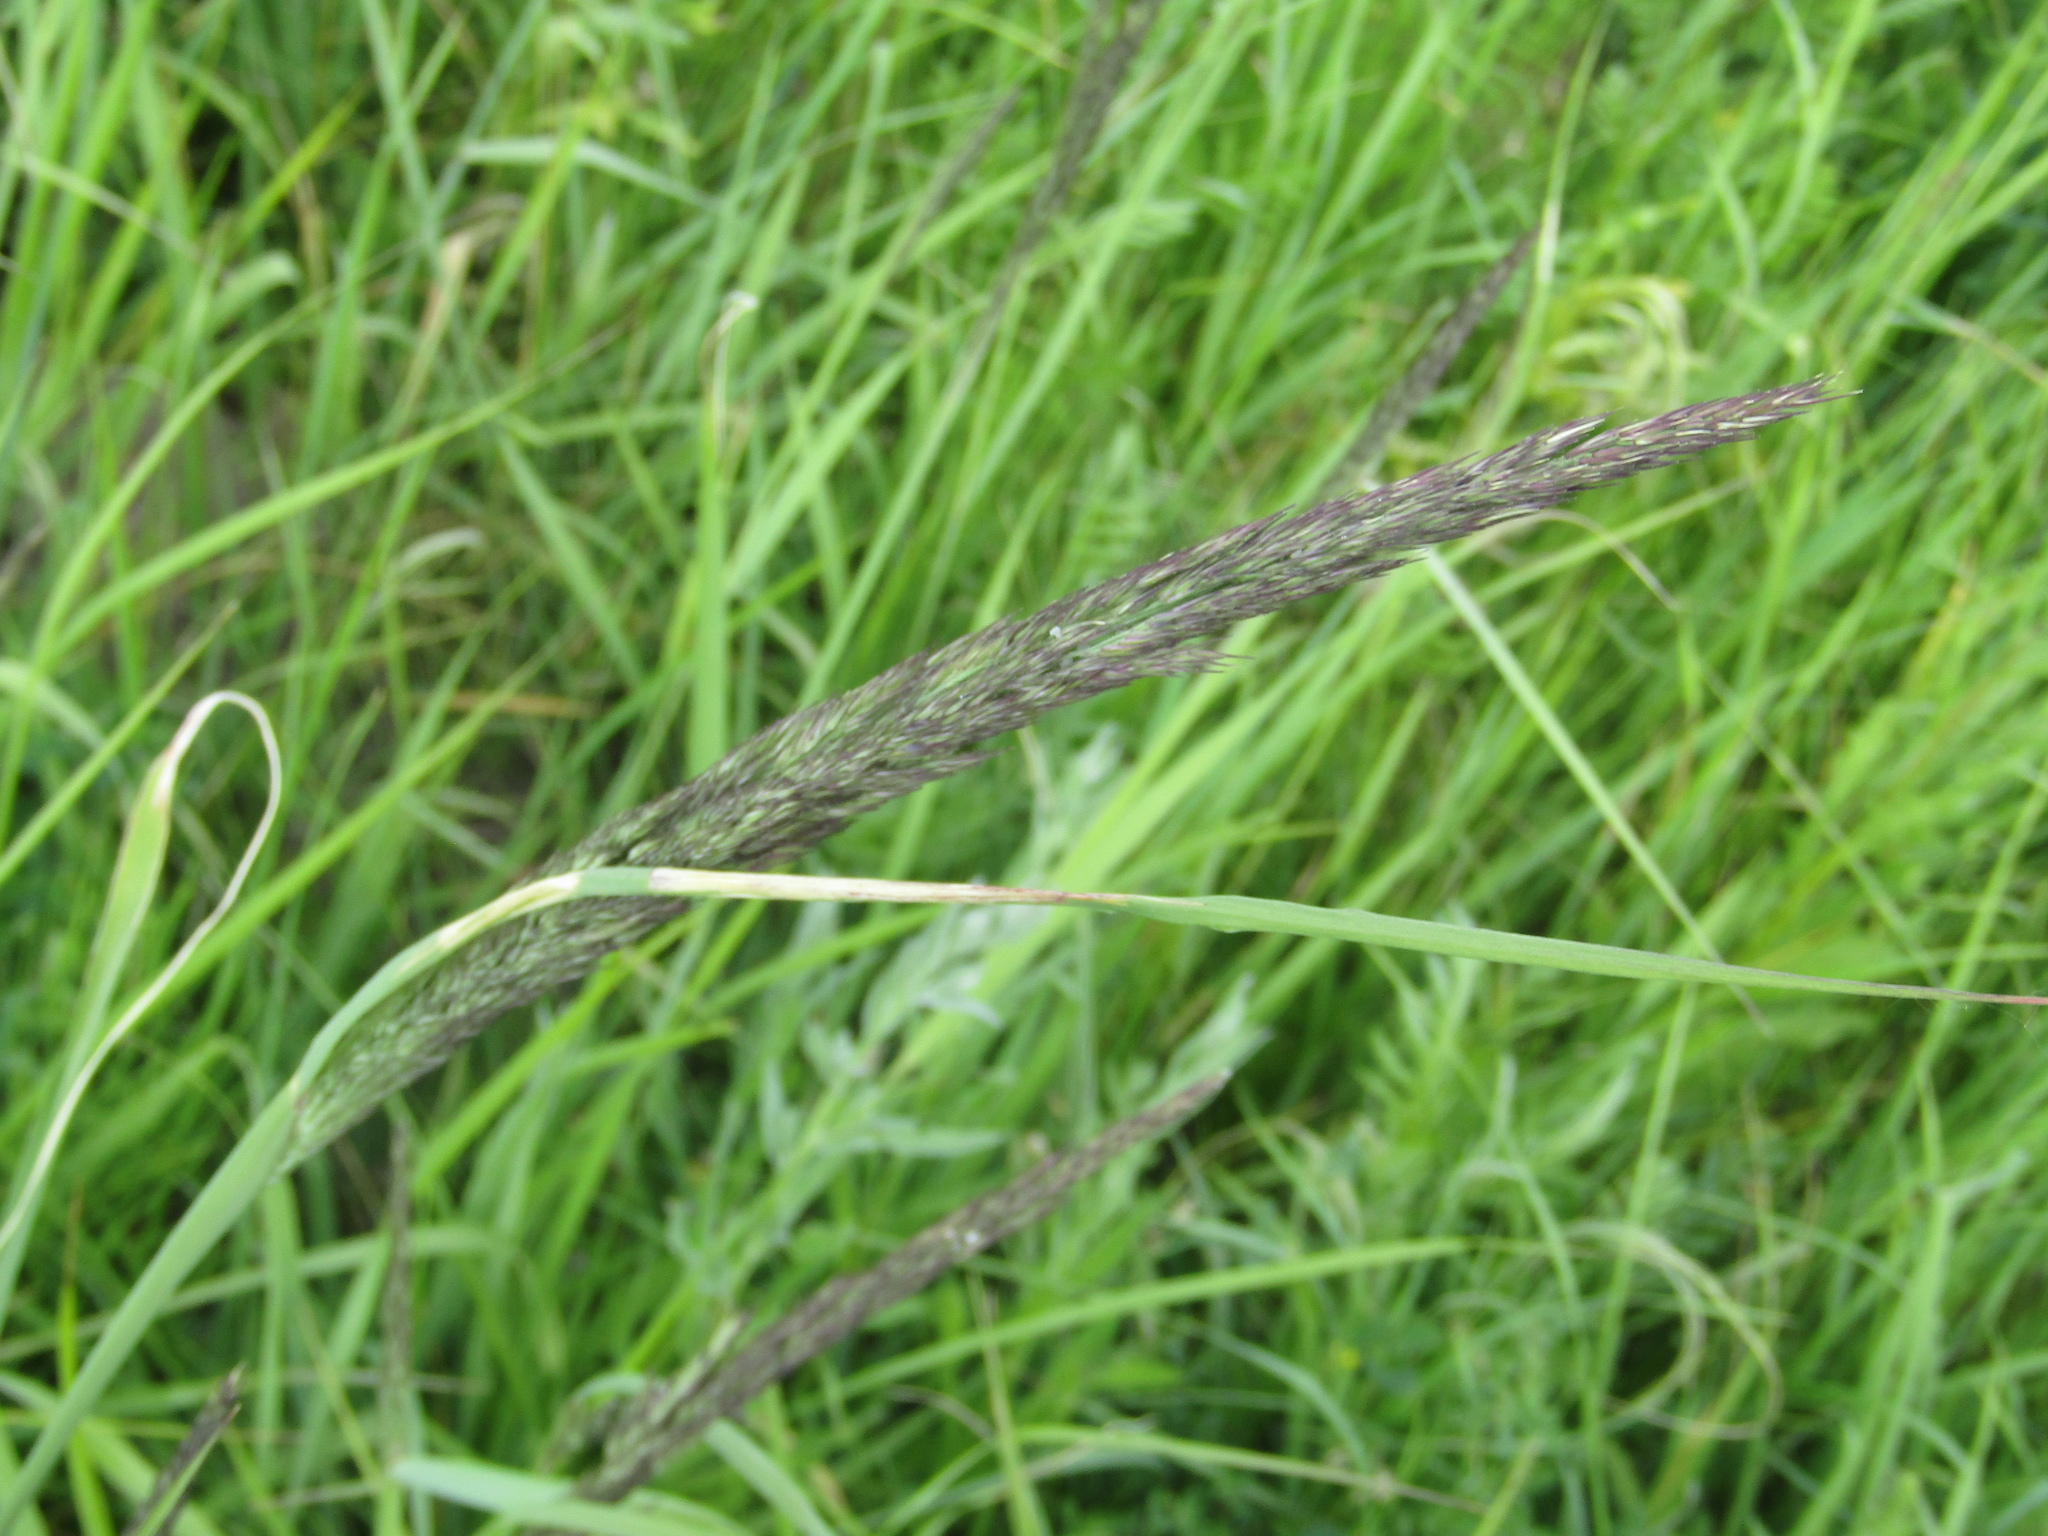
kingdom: Plantae
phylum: Tracheophyta
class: Liliopsida
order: Poales
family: Poaceae
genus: Calamagrostis
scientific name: Calamagrostis epigejos
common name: Wood small-reed
